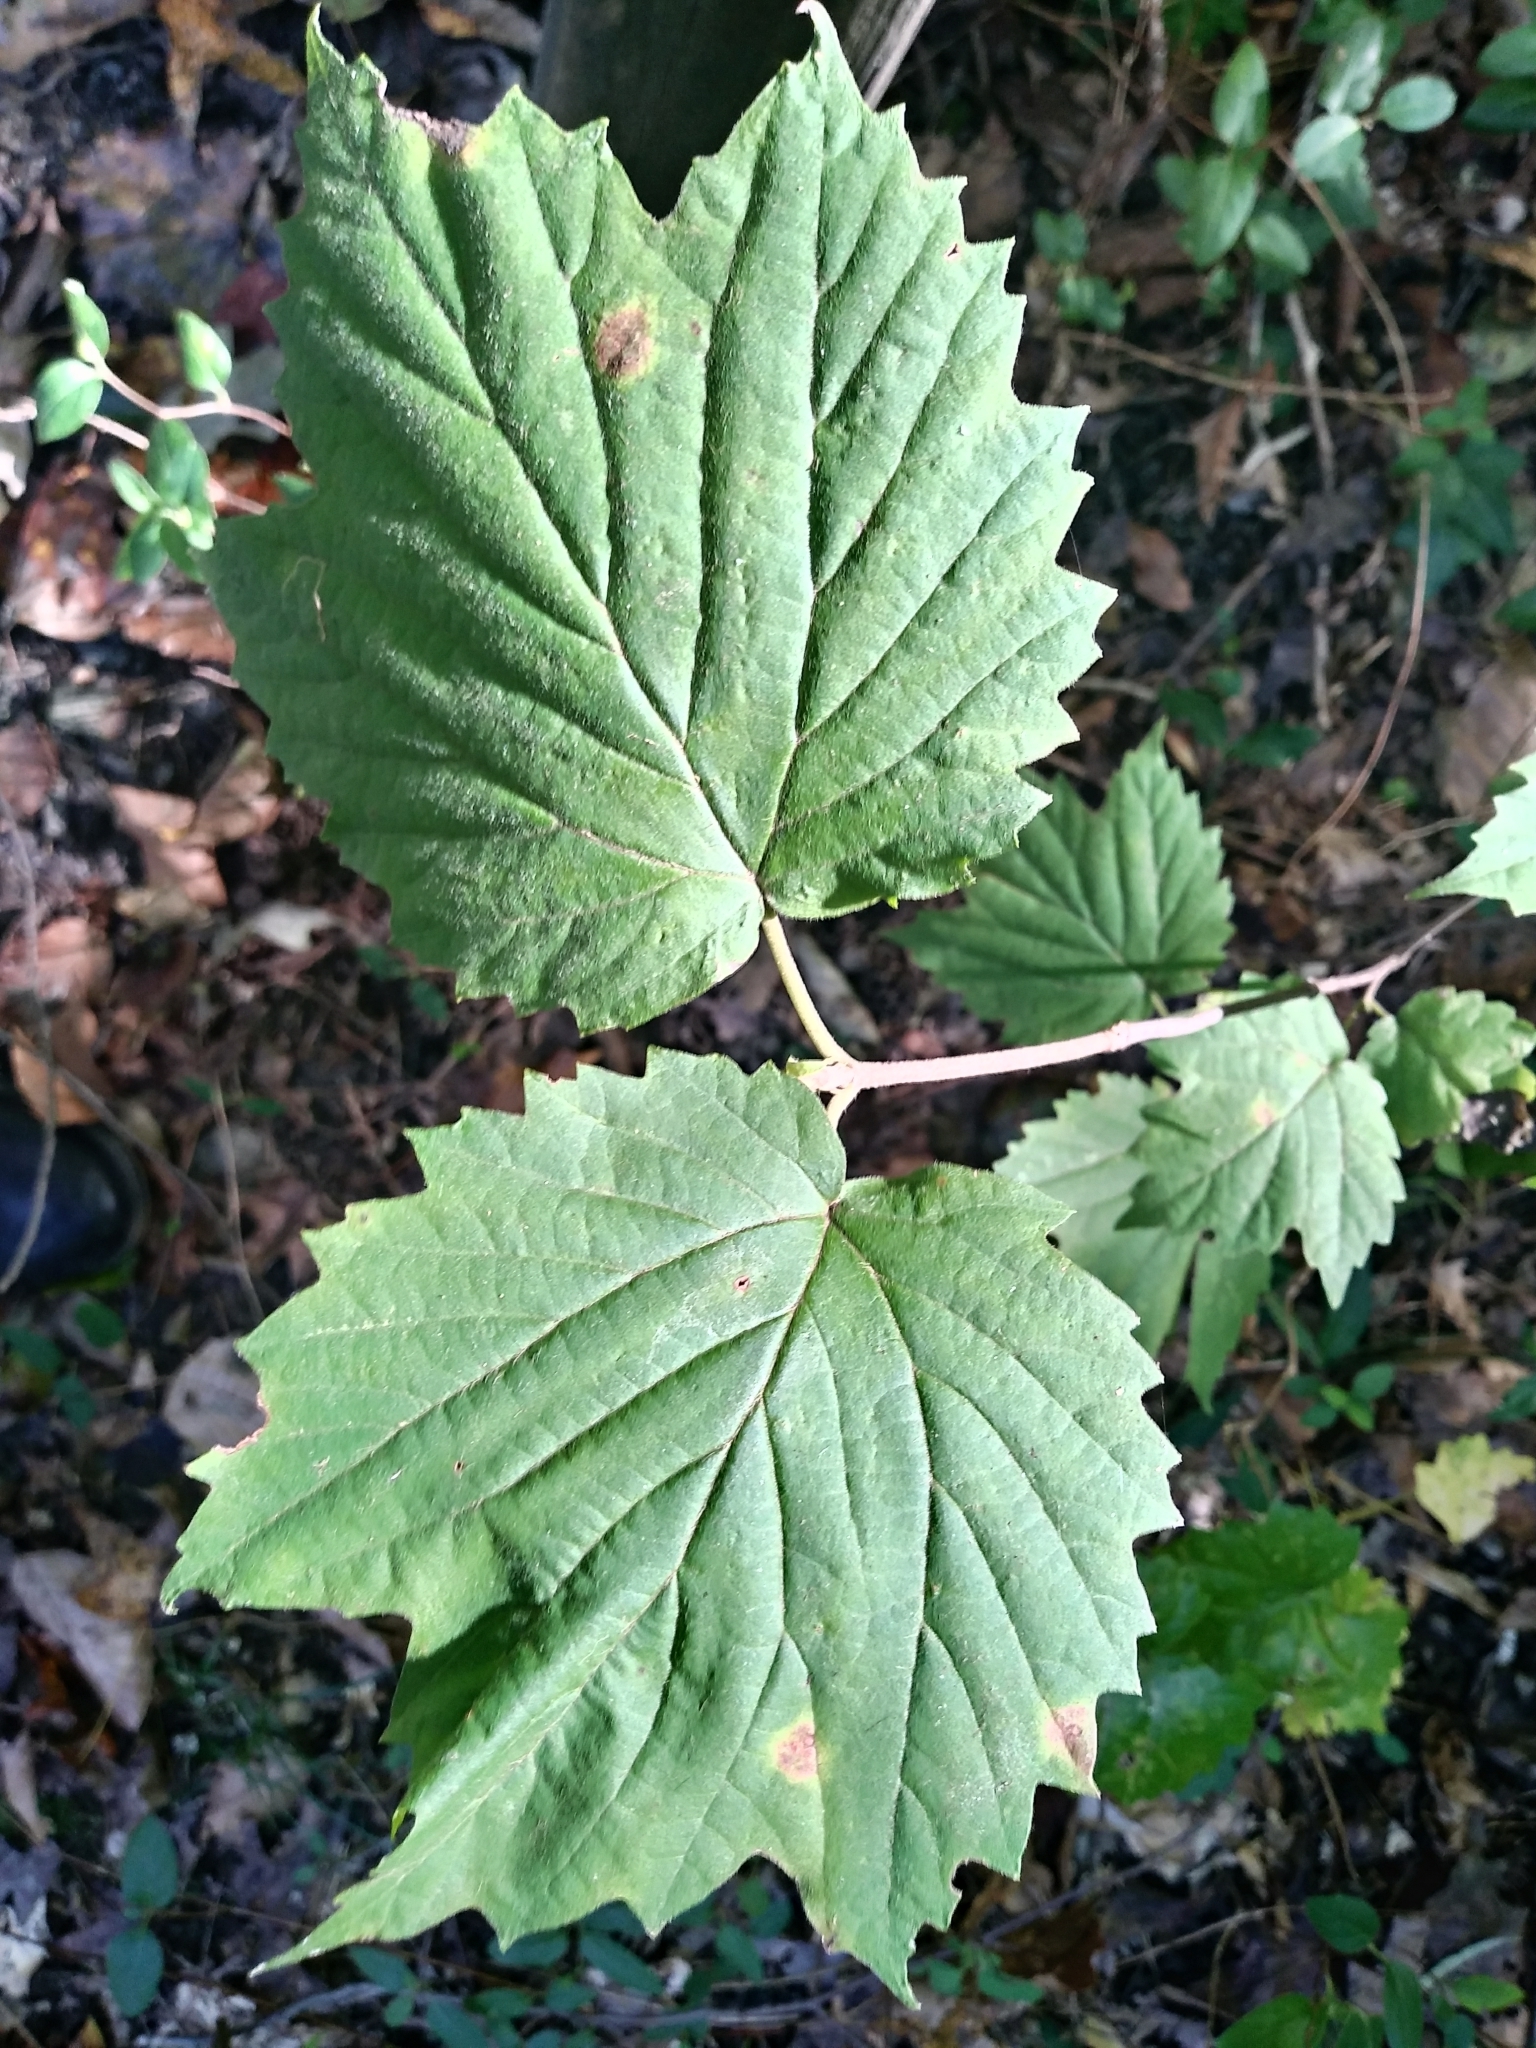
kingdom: Plantae
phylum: Tracheophyta
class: Magnoliopsida
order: Dipsacales
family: Viburnaceae
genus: Viburnum
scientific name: Viburnum acerifolium
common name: Dockmackie
